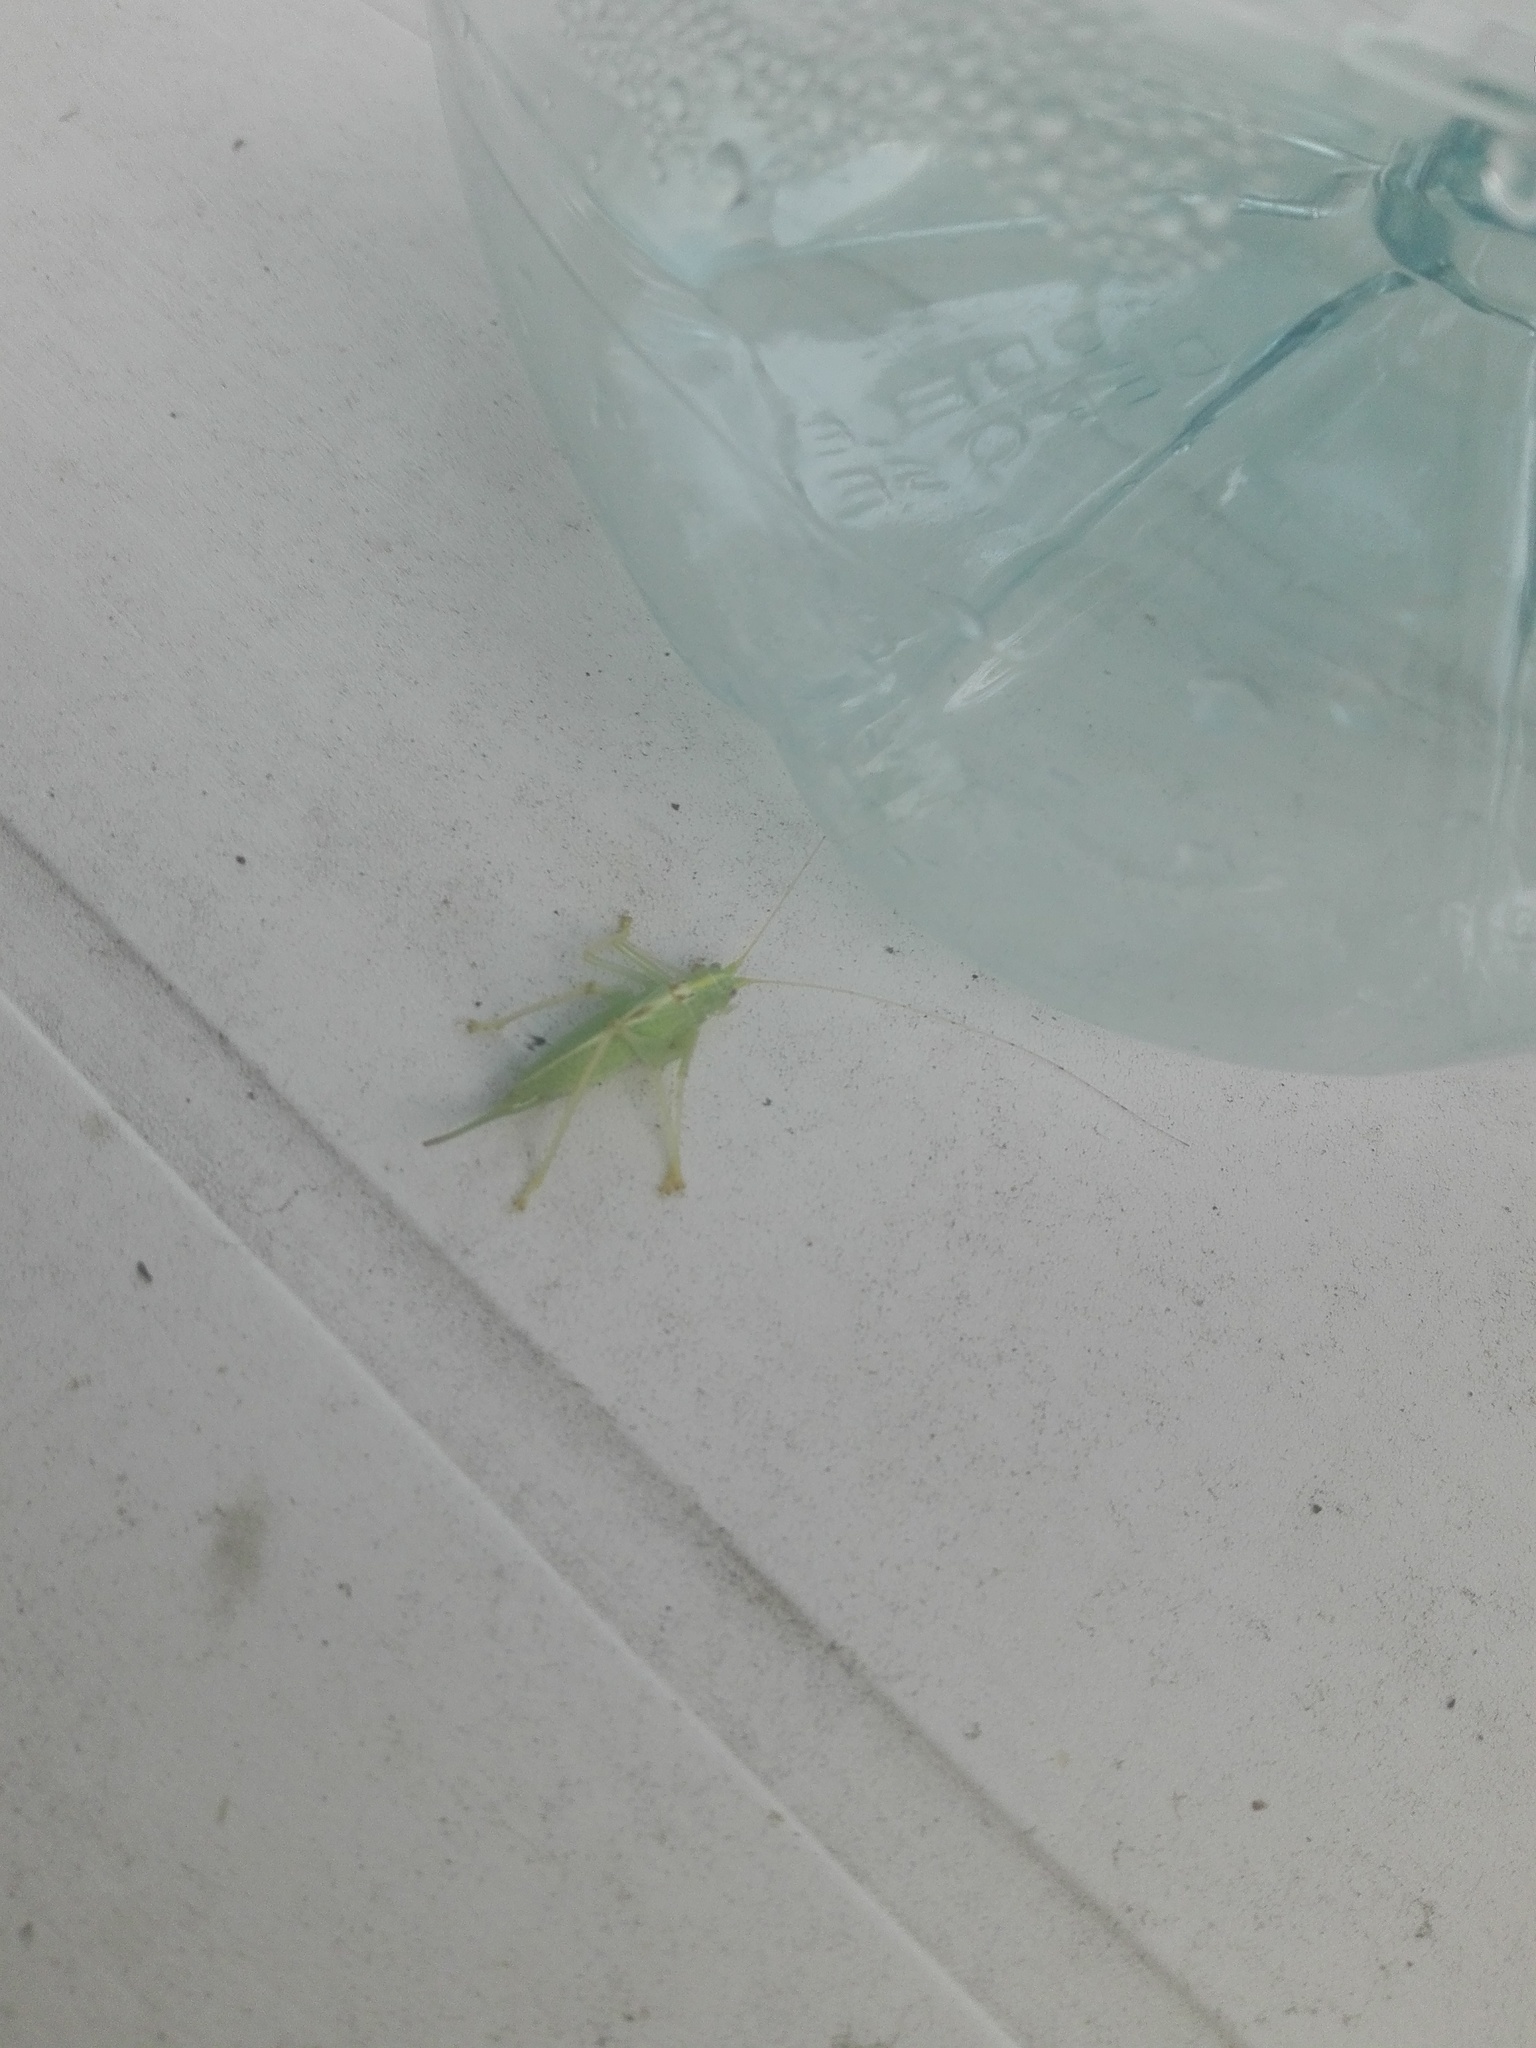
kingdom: Animalia
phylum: Arthropoda
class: Insecta
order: Orthoptera
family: Tettigoniidae
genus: Meconema
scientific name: Meconema thalassinum
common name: Oak bush-cricket
